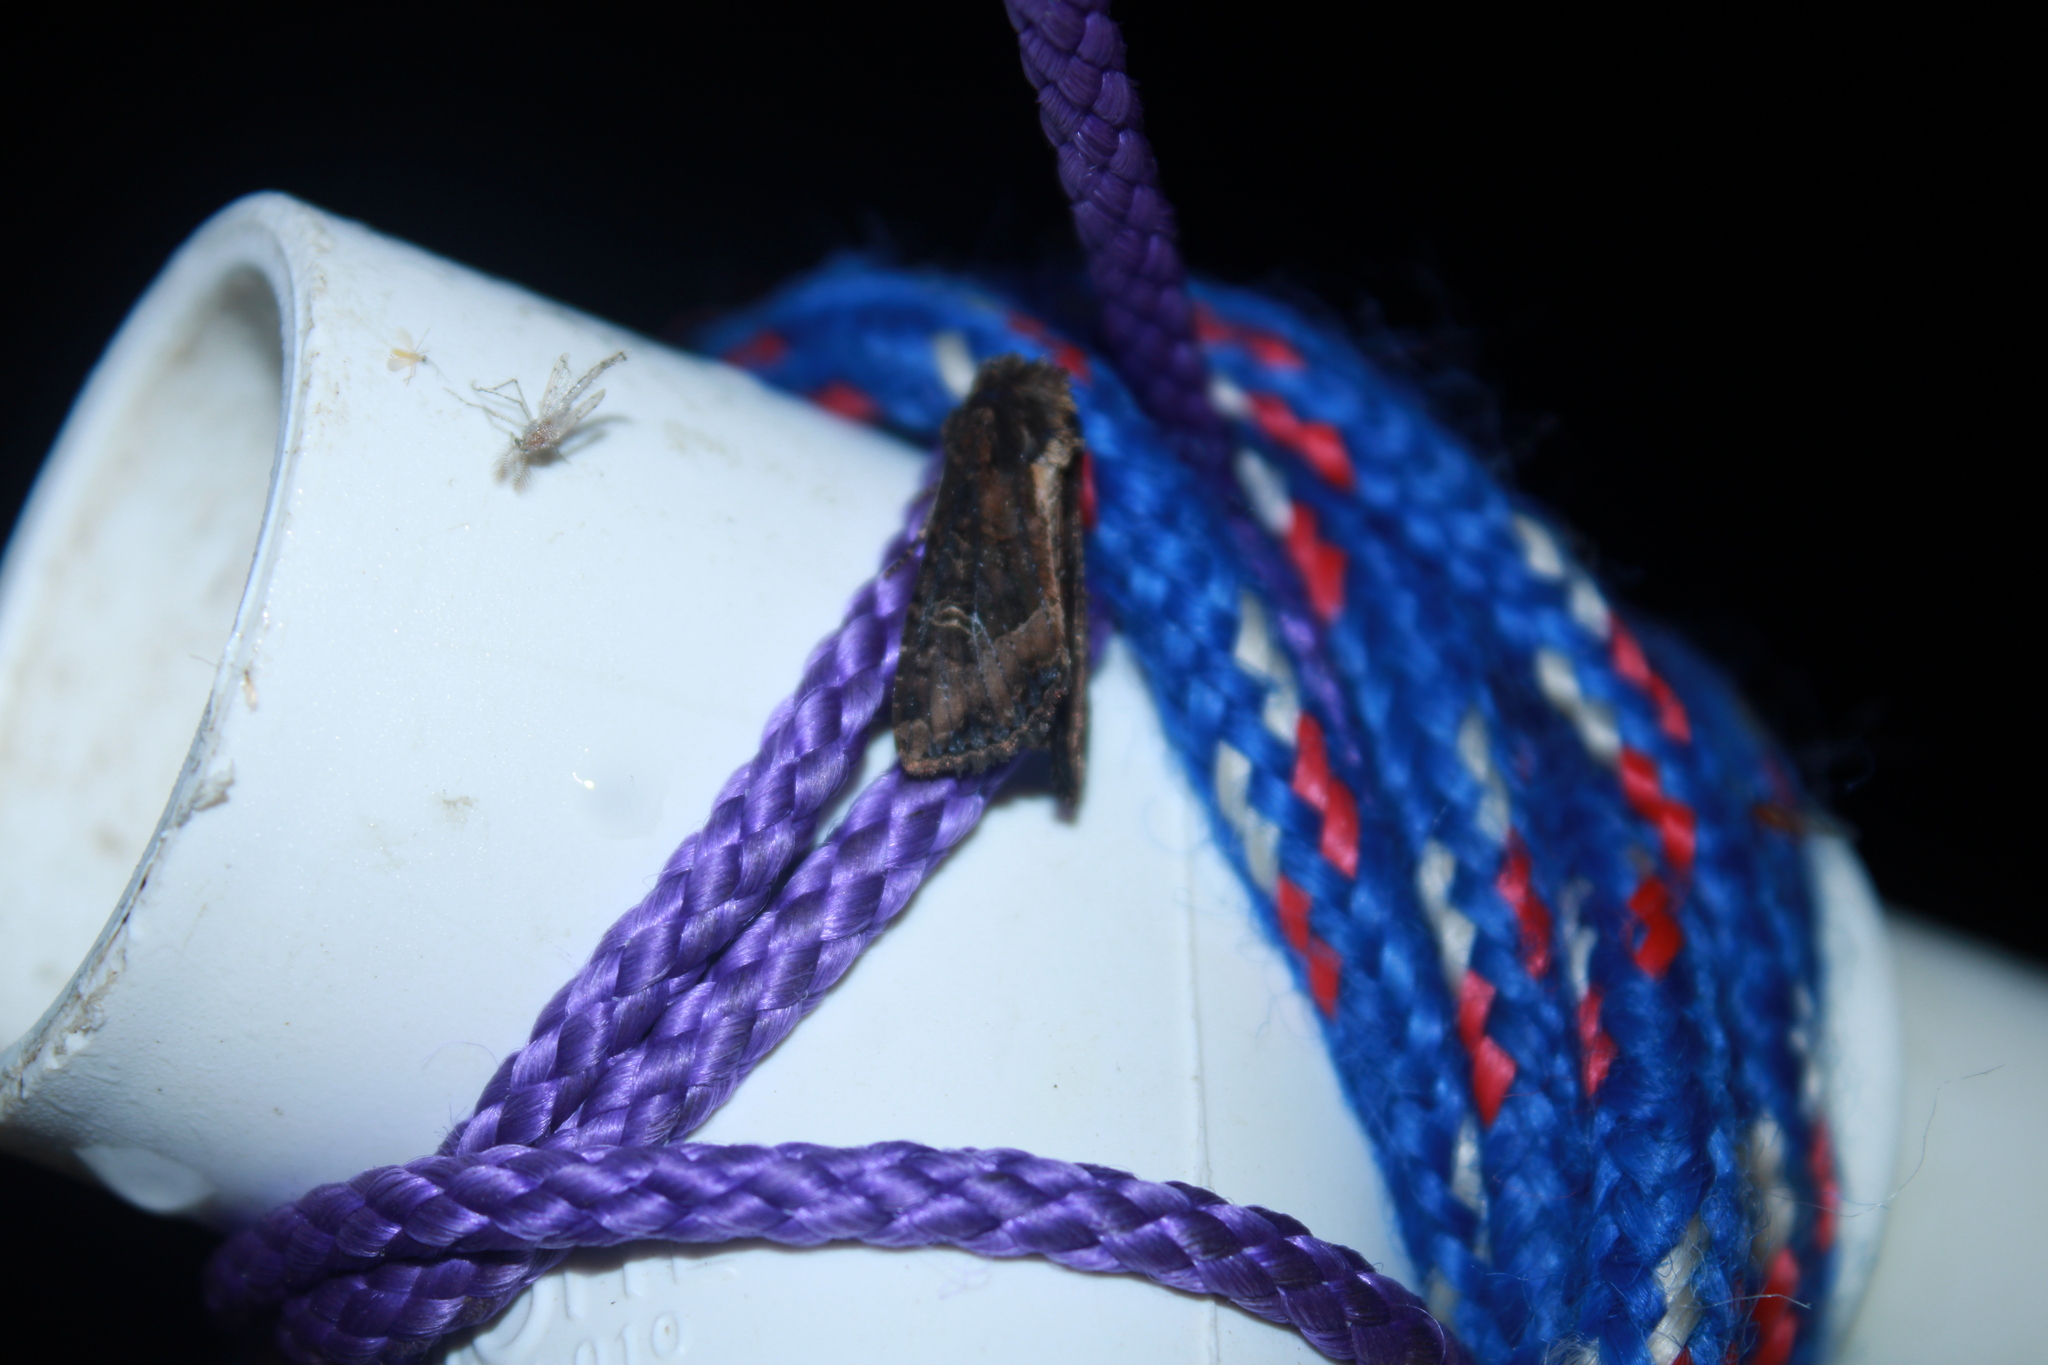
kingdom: Animalia
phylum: Arthropoda
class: Insecta
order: Lepidoptera
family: Noctuidae
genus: Helotropha
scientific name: Helotropha reniformis
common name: Kidney-spotted rustic moth
